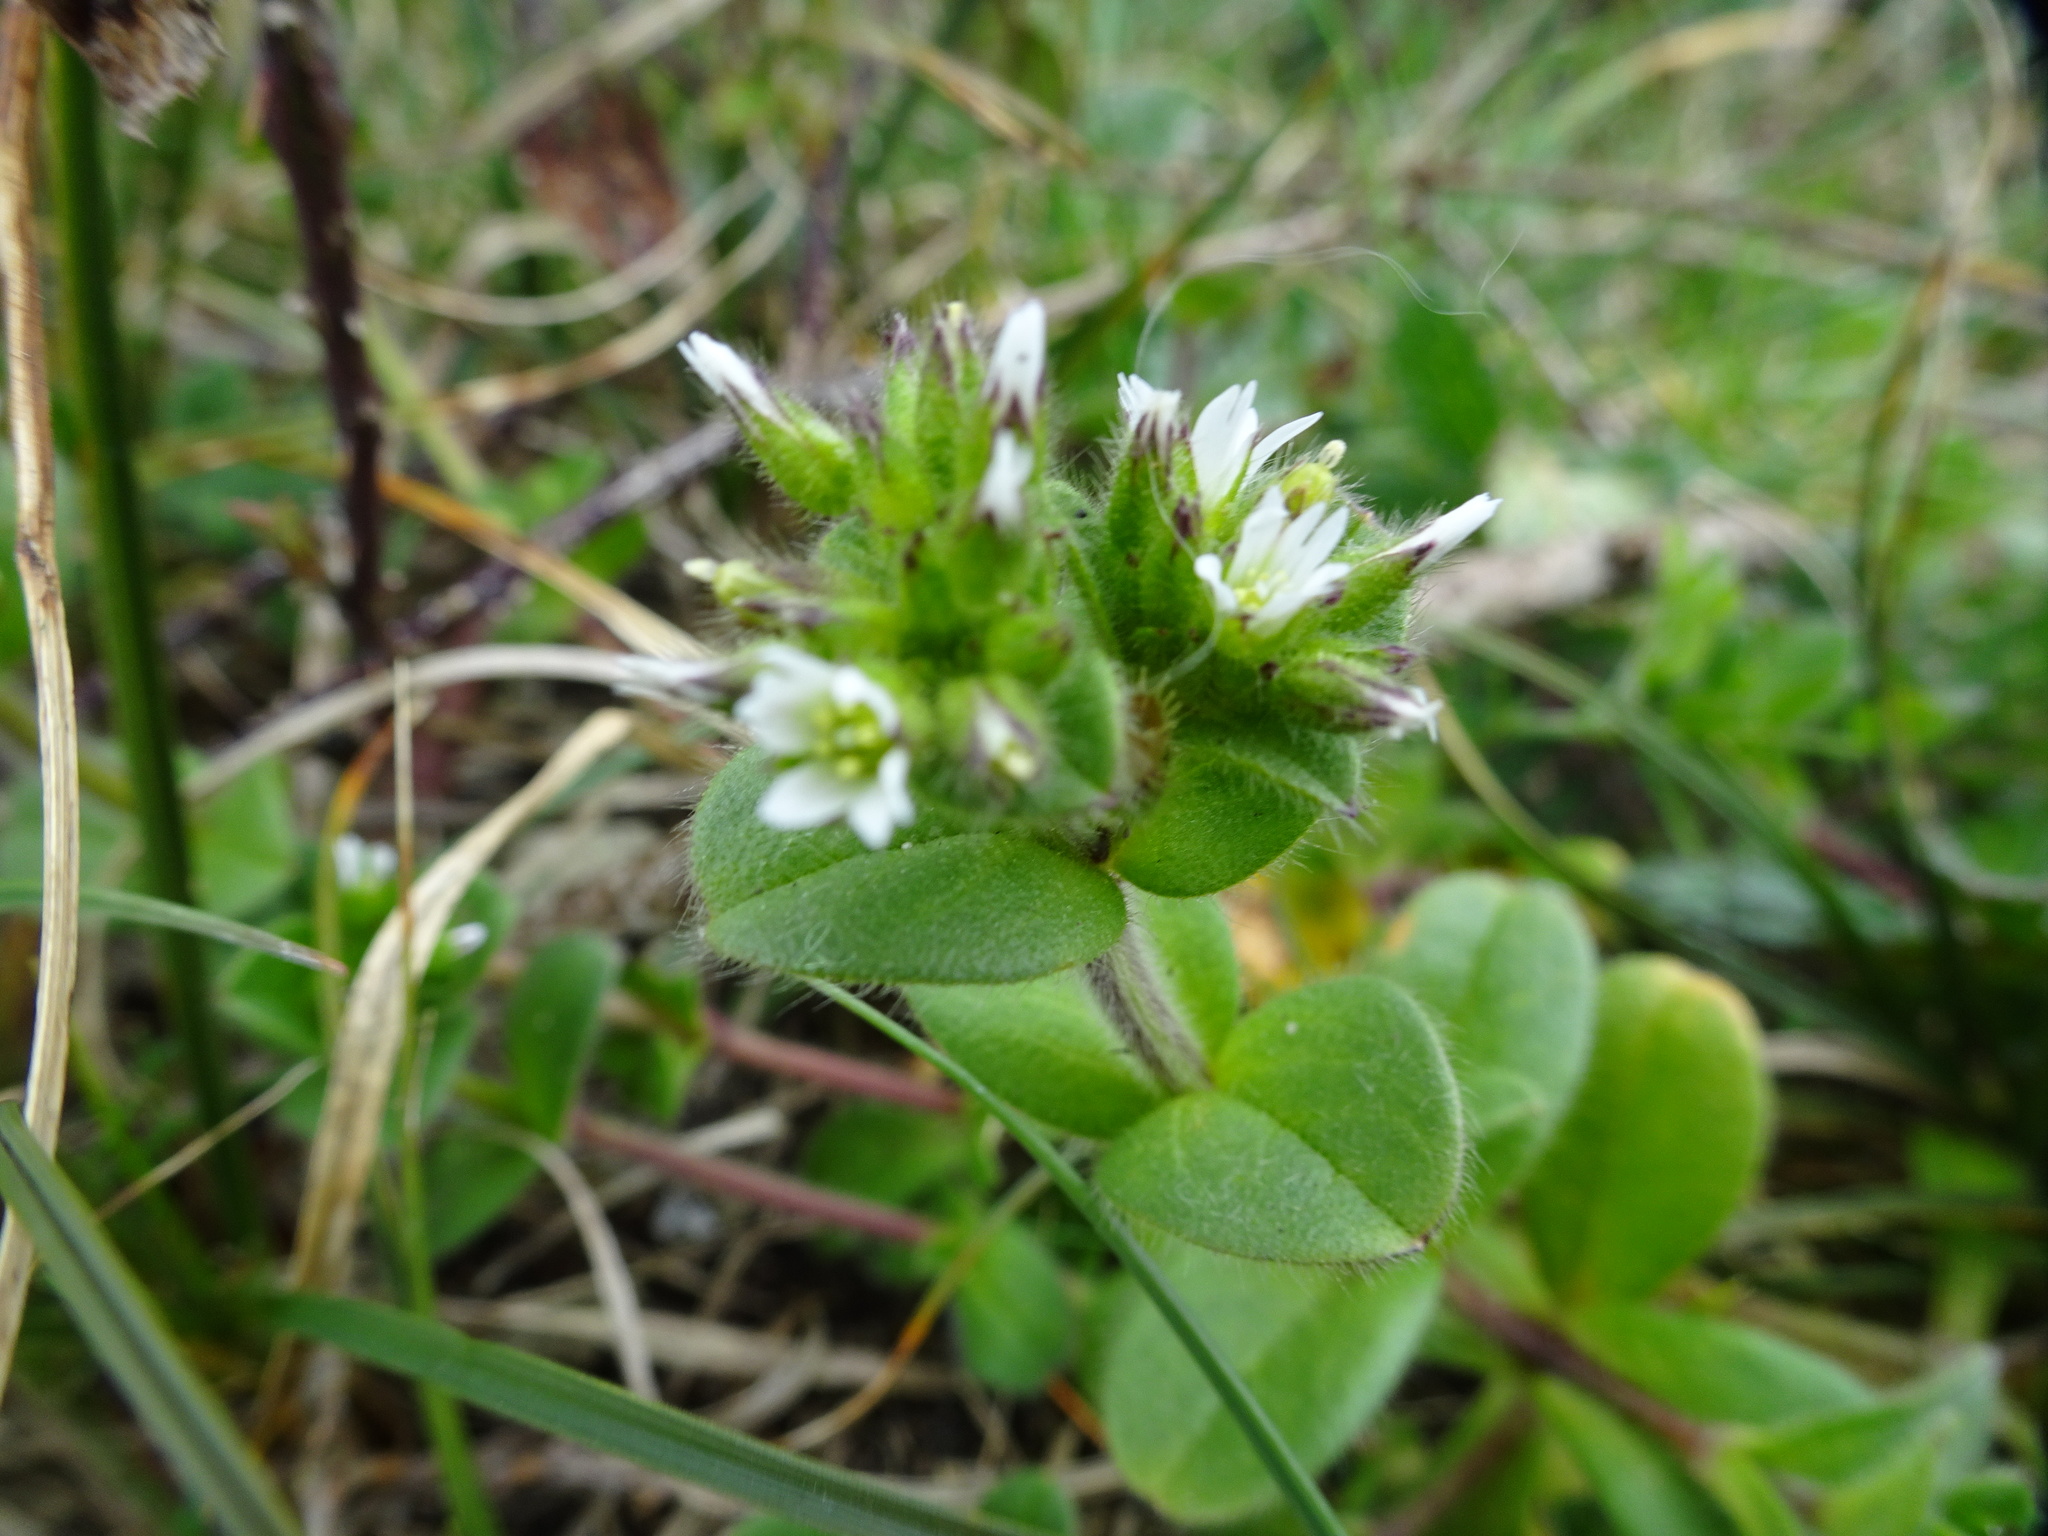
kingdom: Plantae
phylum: Tracheophyta
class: Magnoliopsida
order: Caryophyllales
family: Caryophyllaceae
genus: Cerastium
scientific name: Cerastium glomeratum
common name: Sticky chickweed
